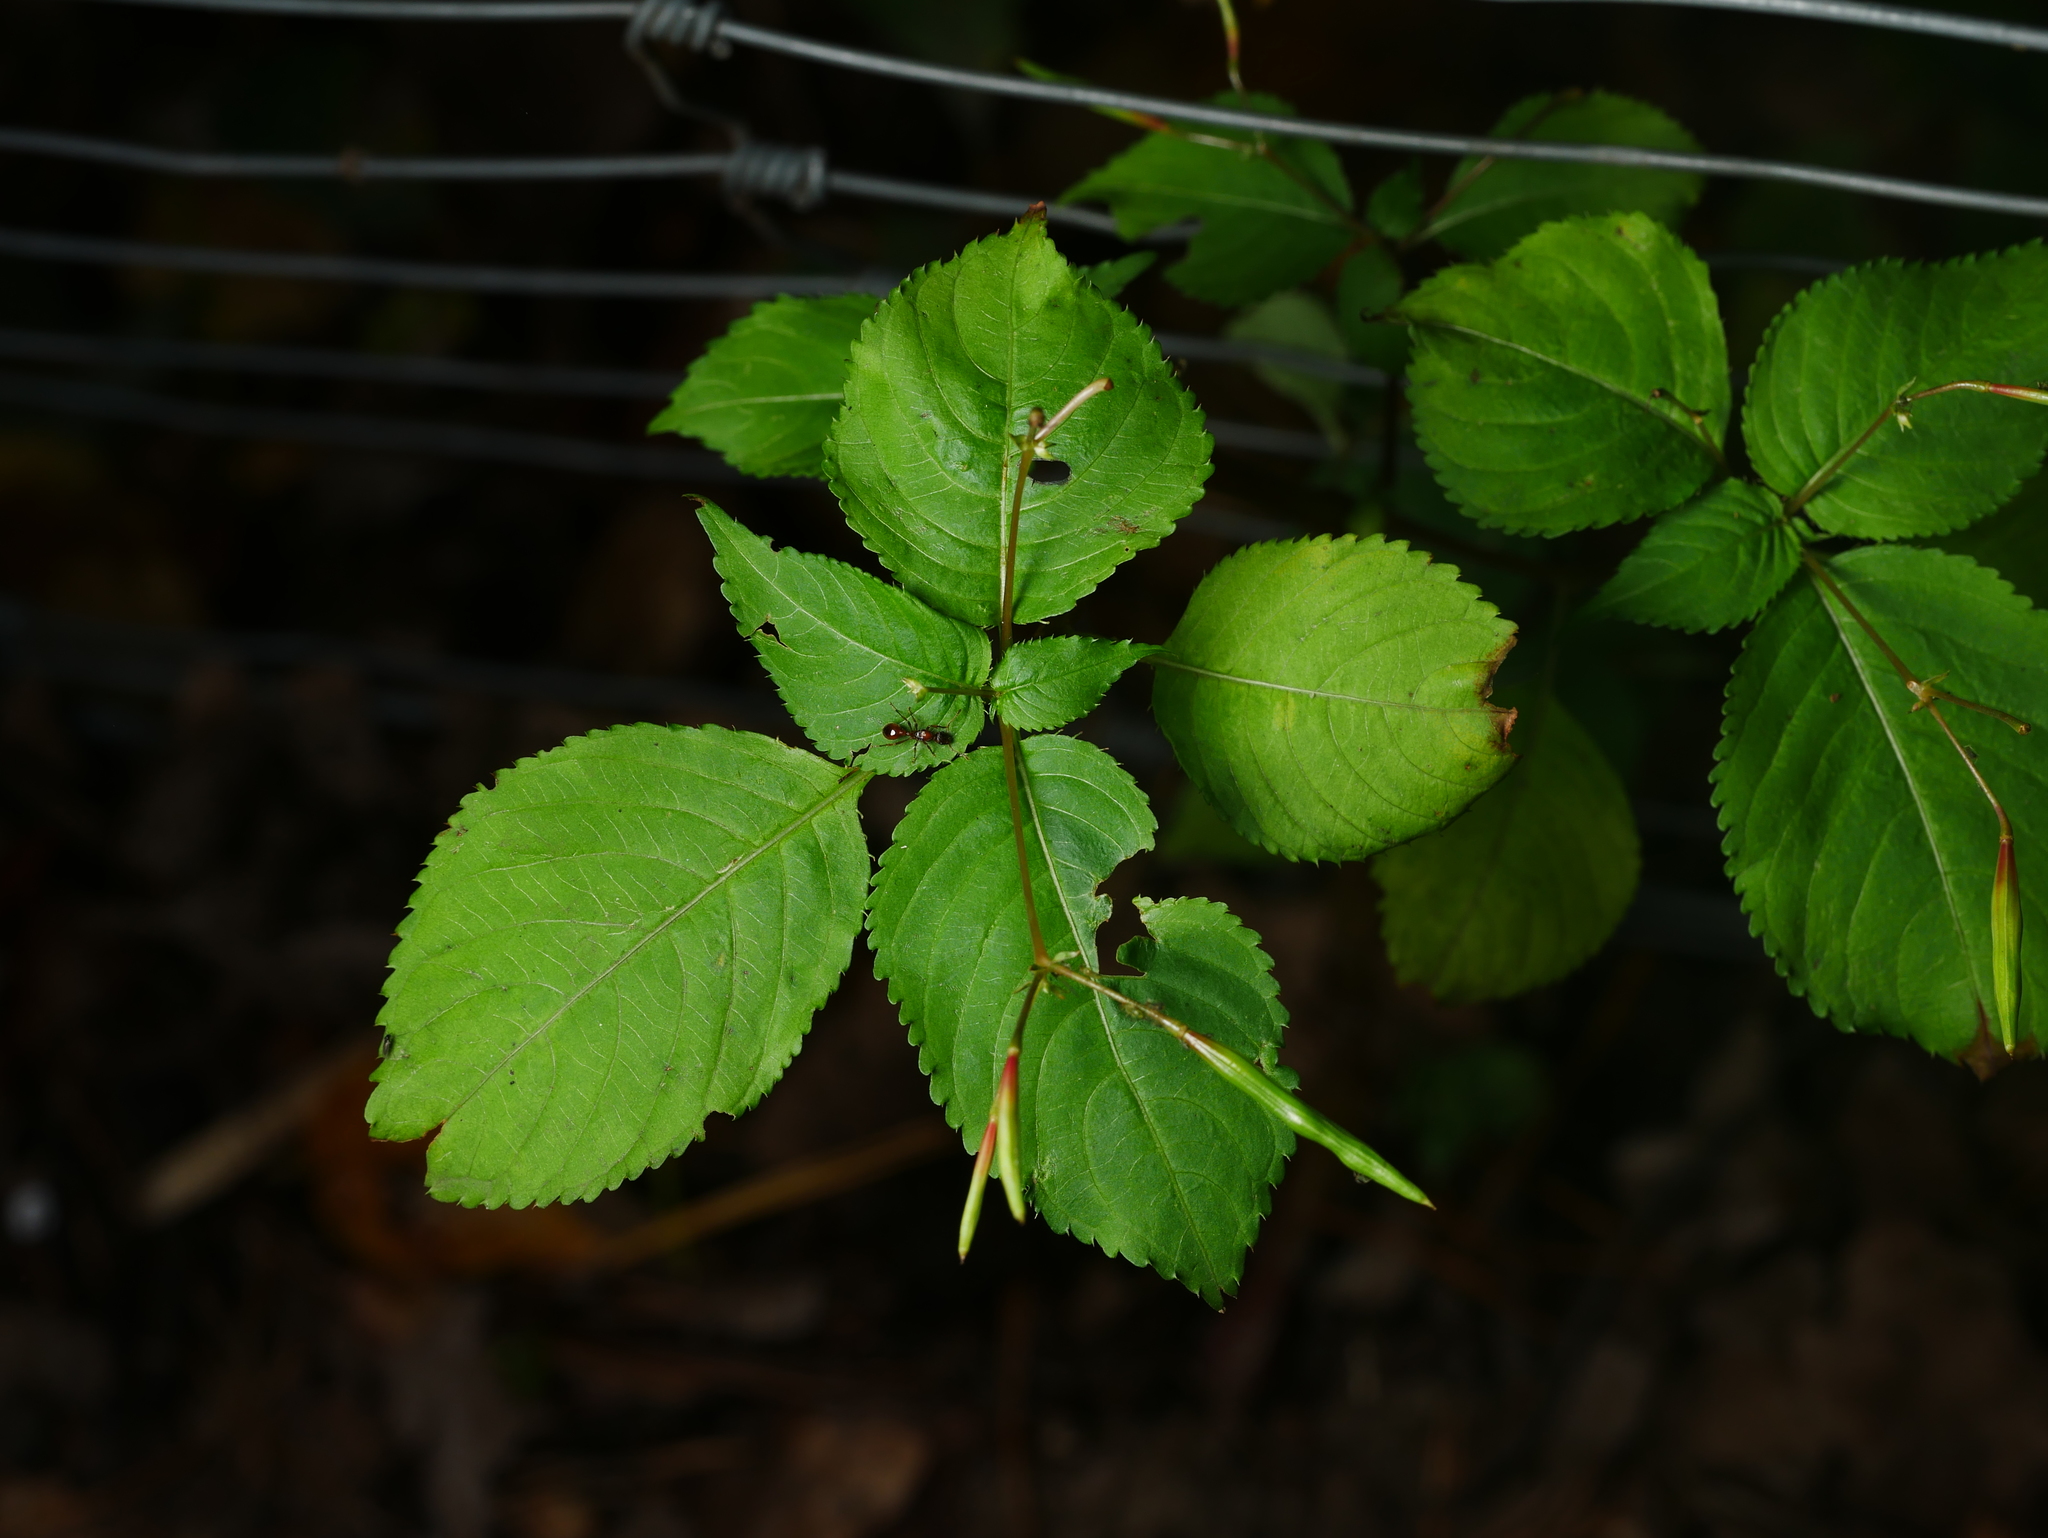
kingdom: Plantae
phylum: Tracheophyta
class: Magnoliopsida
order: Ericales
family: Balsaminaceae
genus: Impatiens
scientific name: Impatiens parviflora
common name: Small balsam
